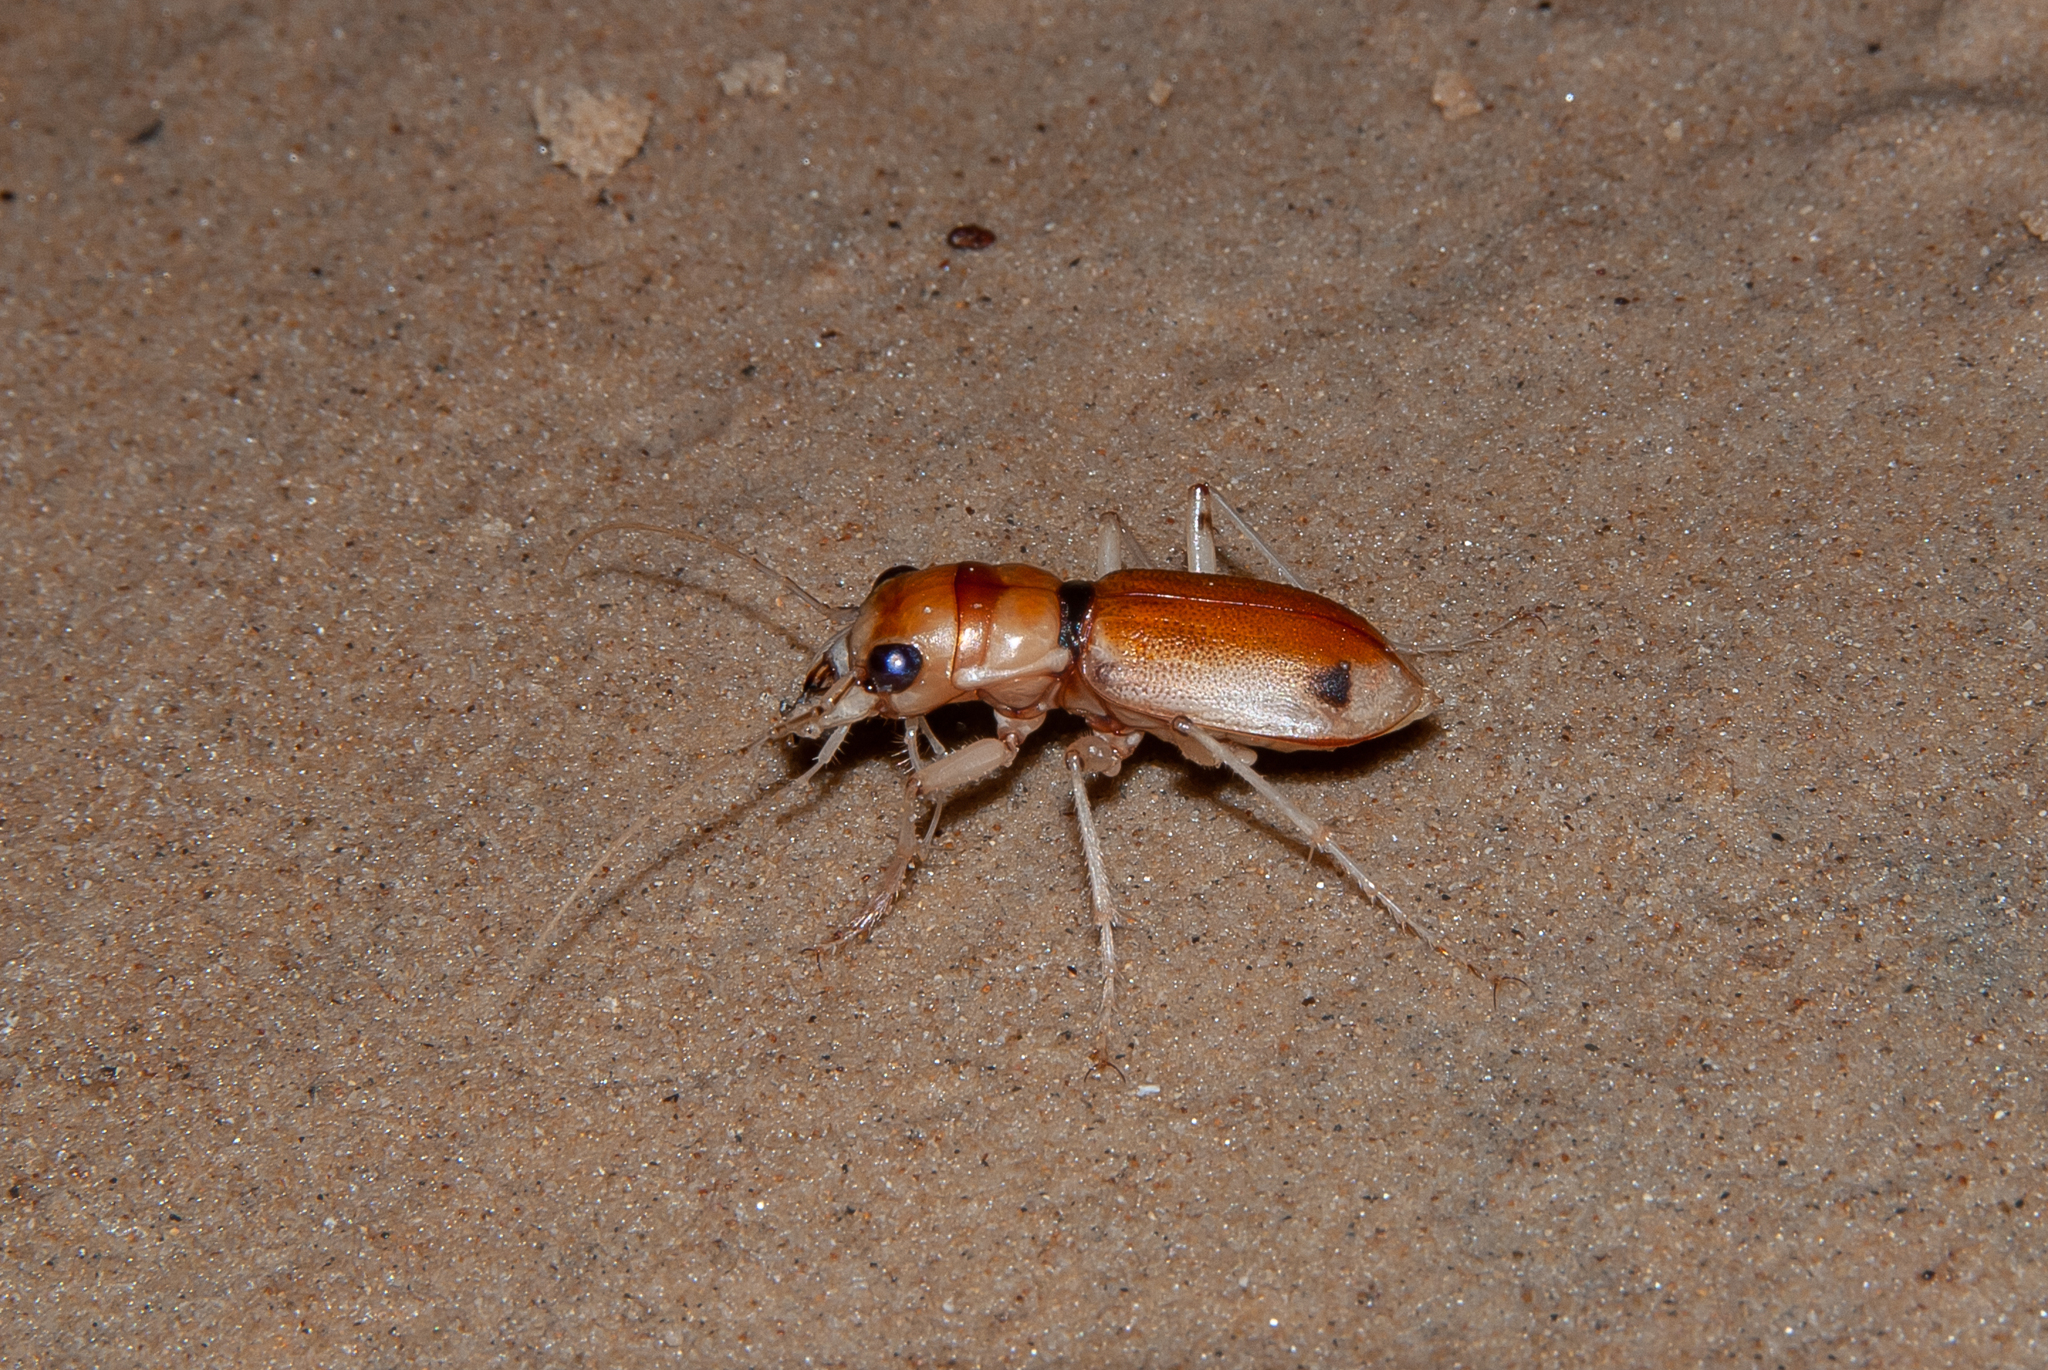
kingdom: Animalia
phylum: Arthropoda
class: Insecta
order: Coleoptera
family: Carabidae
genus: Phaeoxantha
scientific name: Phaeoxantha klugii
